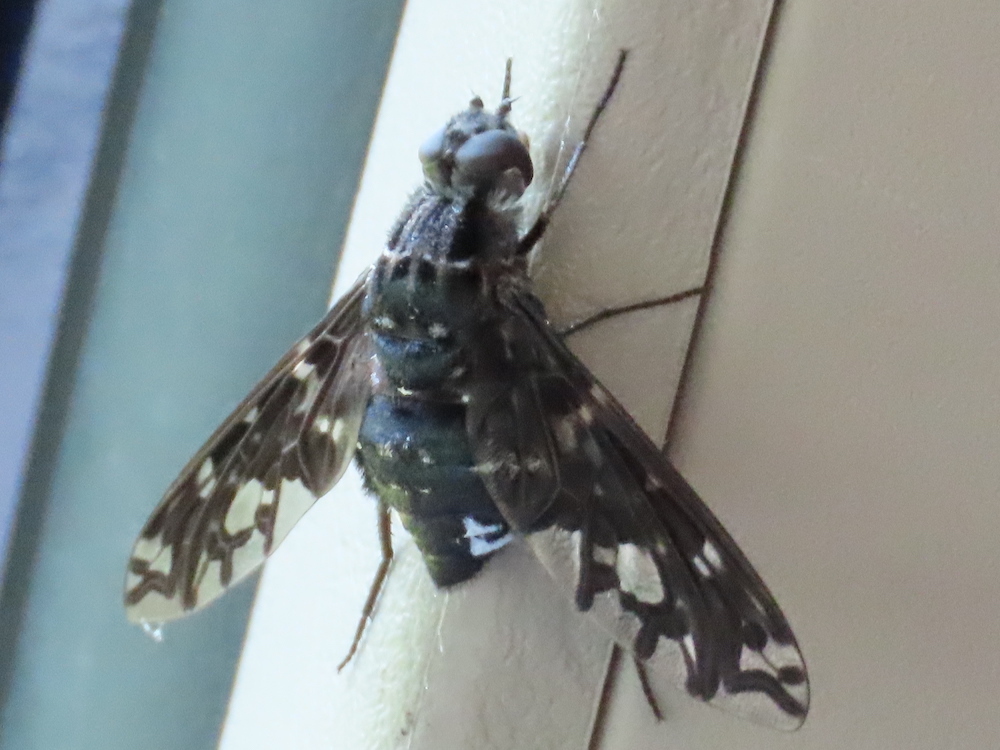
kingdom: Animalia
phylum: Arthropoda
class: Insecta
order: Diptera
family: Bombyliidae
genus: Xenox
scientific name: Xenox tigrinus
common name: Tiger bee fly
